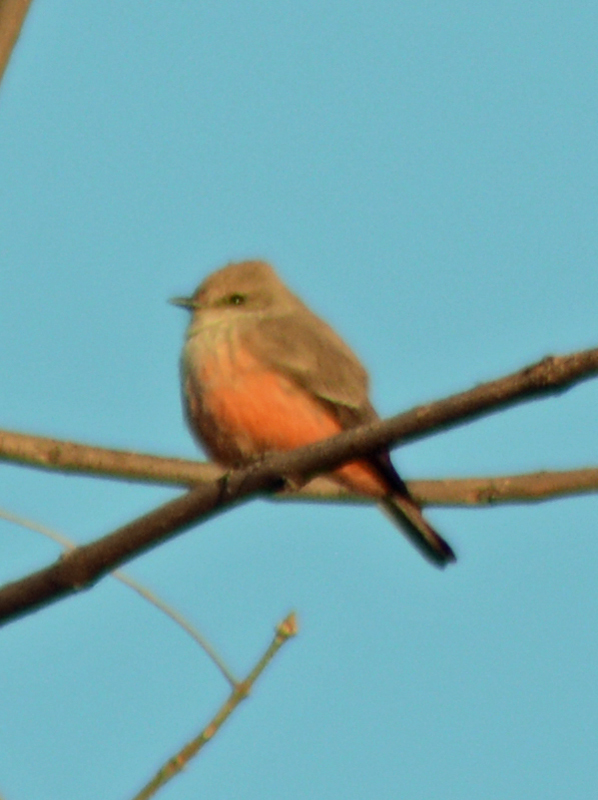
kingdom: Animalia
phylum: Chordata
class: Aves
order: Passeriformes
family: Tyrannidae
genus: Pyrocephalus
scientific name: Pyrocephalus rubinus
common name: Vermilion flycatcher
